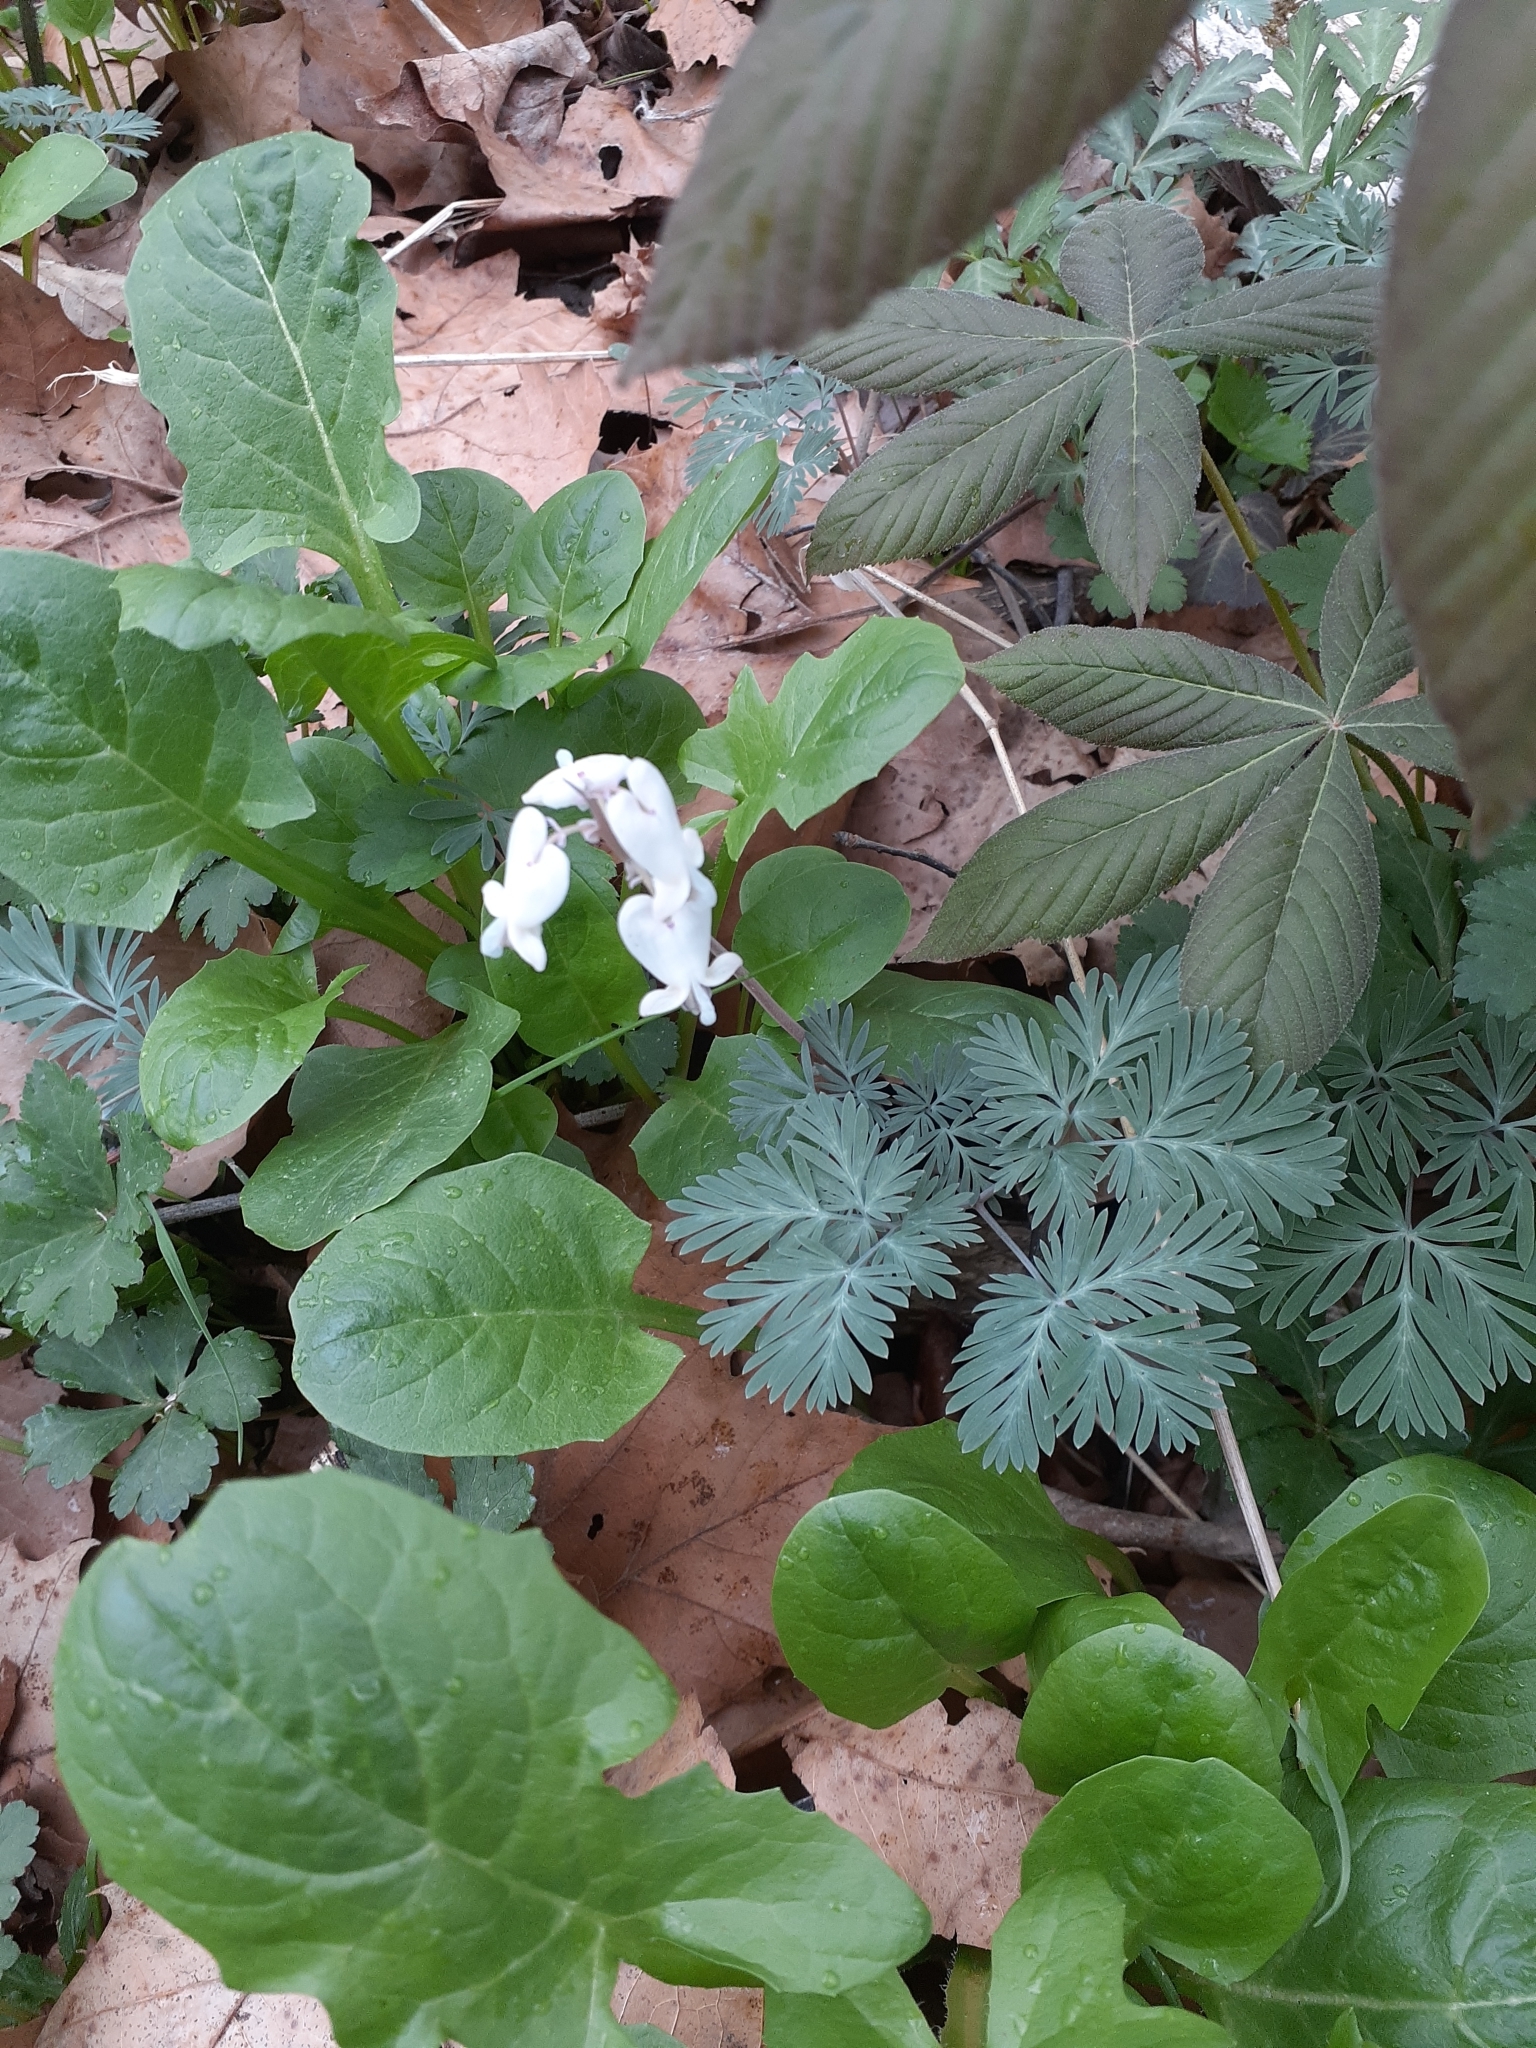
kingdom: Plantae
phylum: Tracheophyta
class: Magnoliopsida
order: Ranunculales
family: Papaveraceae
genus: Dicentra
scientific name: Dicentra canadensis
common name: Squirrel-corn
